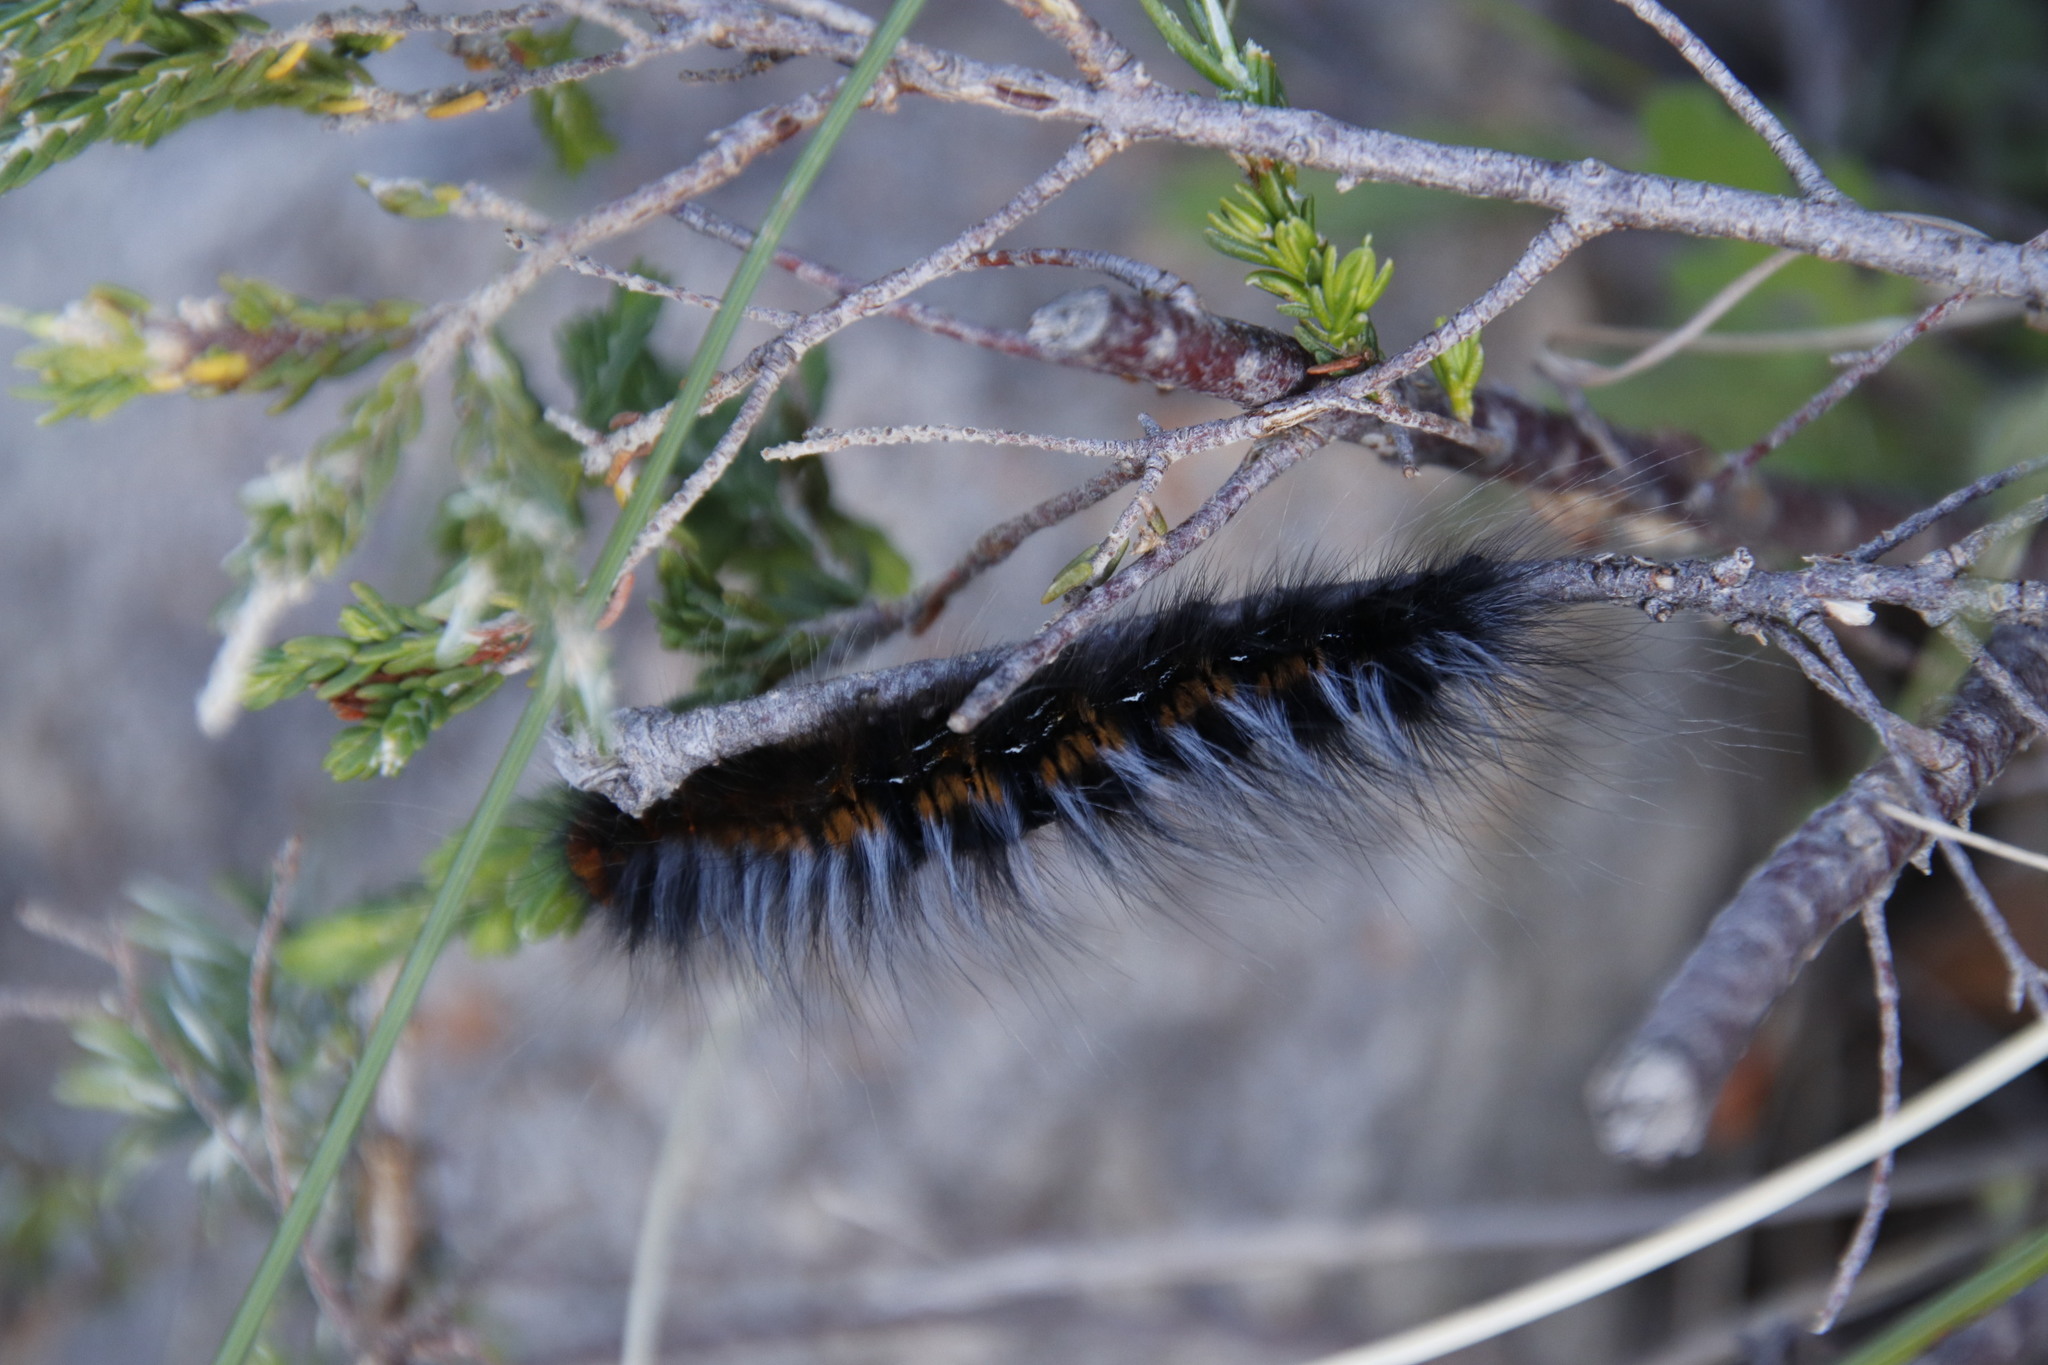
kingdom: Animalia
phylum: Arthropoda
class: Insecta
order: Lepidoptera
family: Lasiocampidae
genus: Mesocelis
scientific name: Mesocelis monticola
